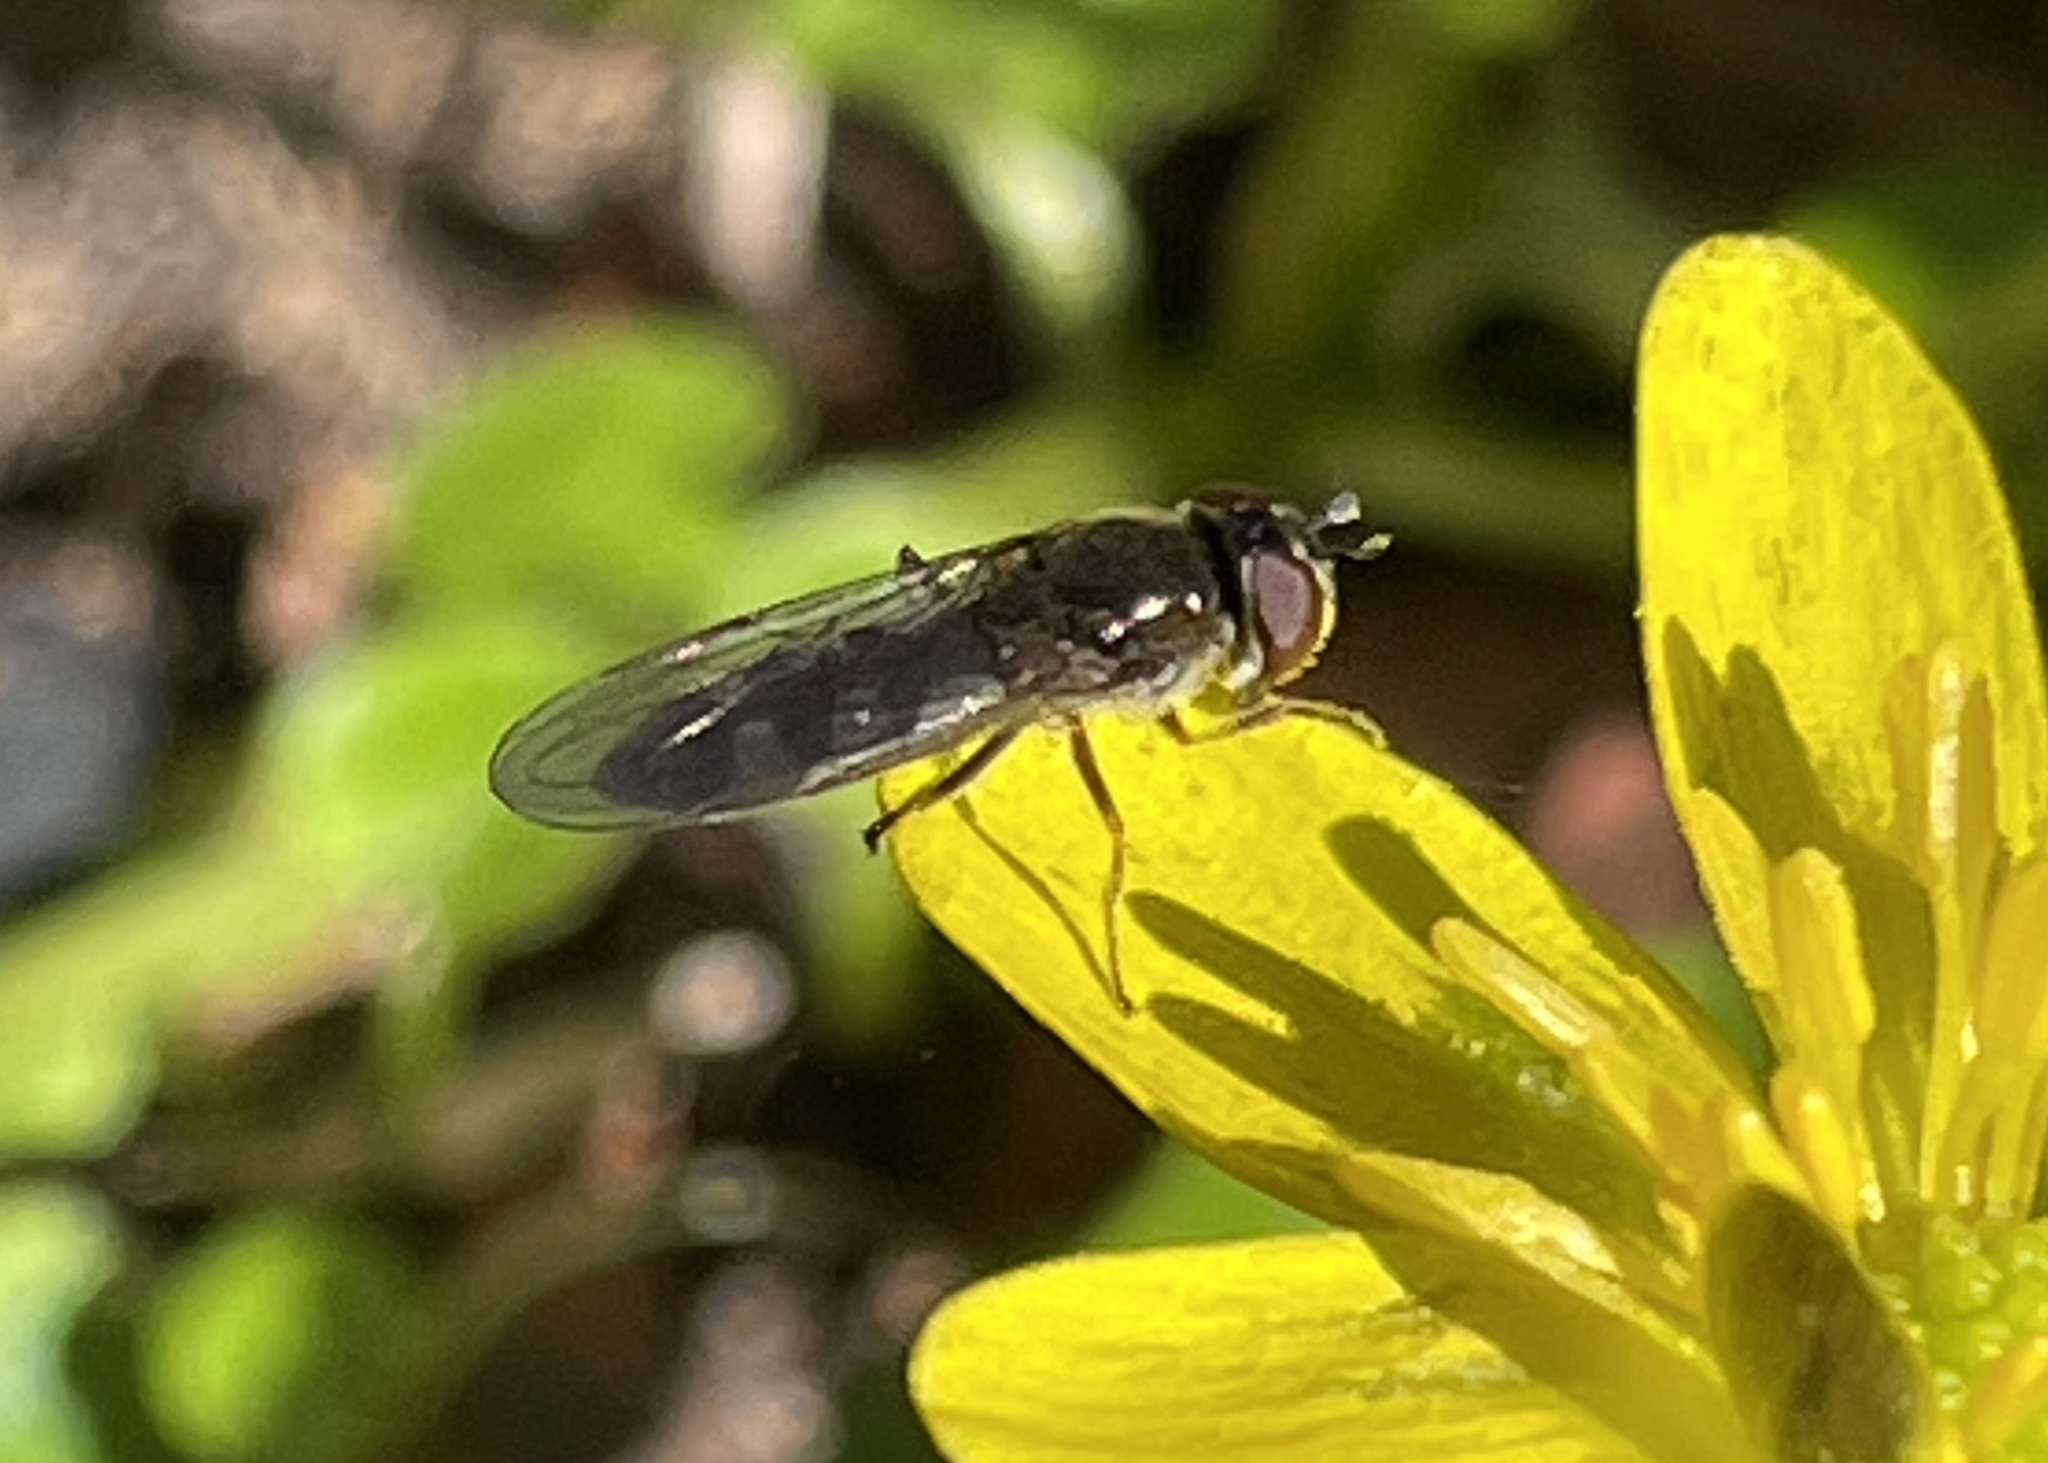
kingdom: Animalia
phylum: Arthropoda
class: Insecta
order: Diptera
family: Syrphidae
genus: Platycheirus
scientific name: Platycheirus albimanus
